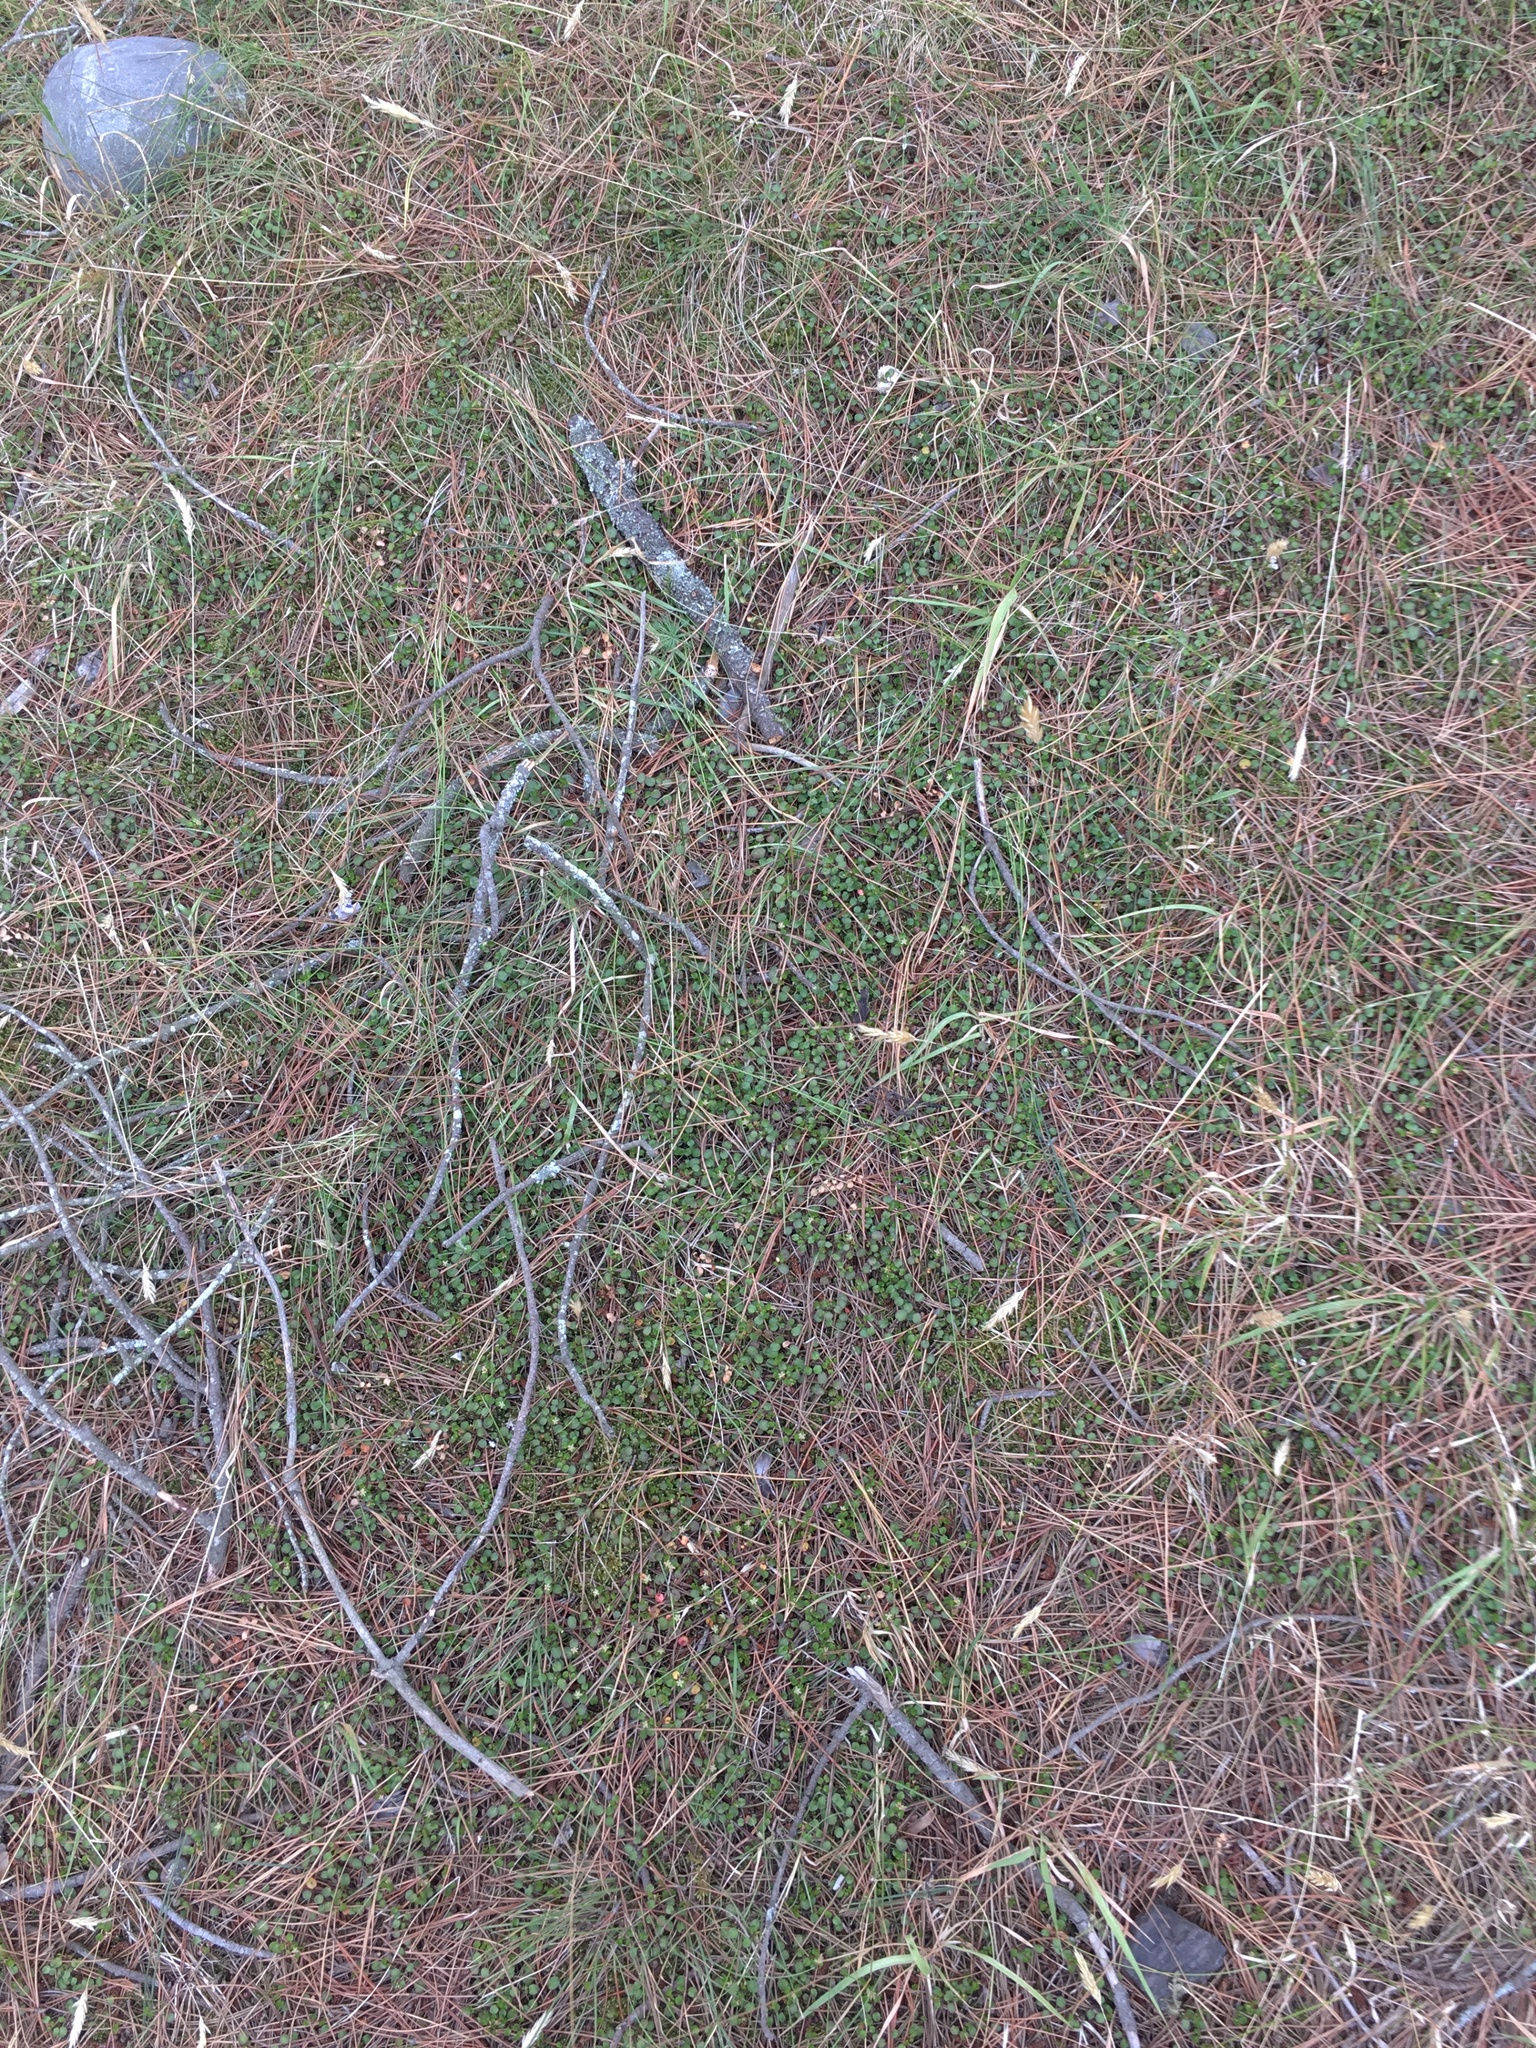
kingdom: Plantae
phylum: Tracheophyta
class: Magnoliopsida
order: Caryophyllales
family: Polygonaceae
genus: Muehlenbeckia
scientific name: Muehlenbeckia axillaris
